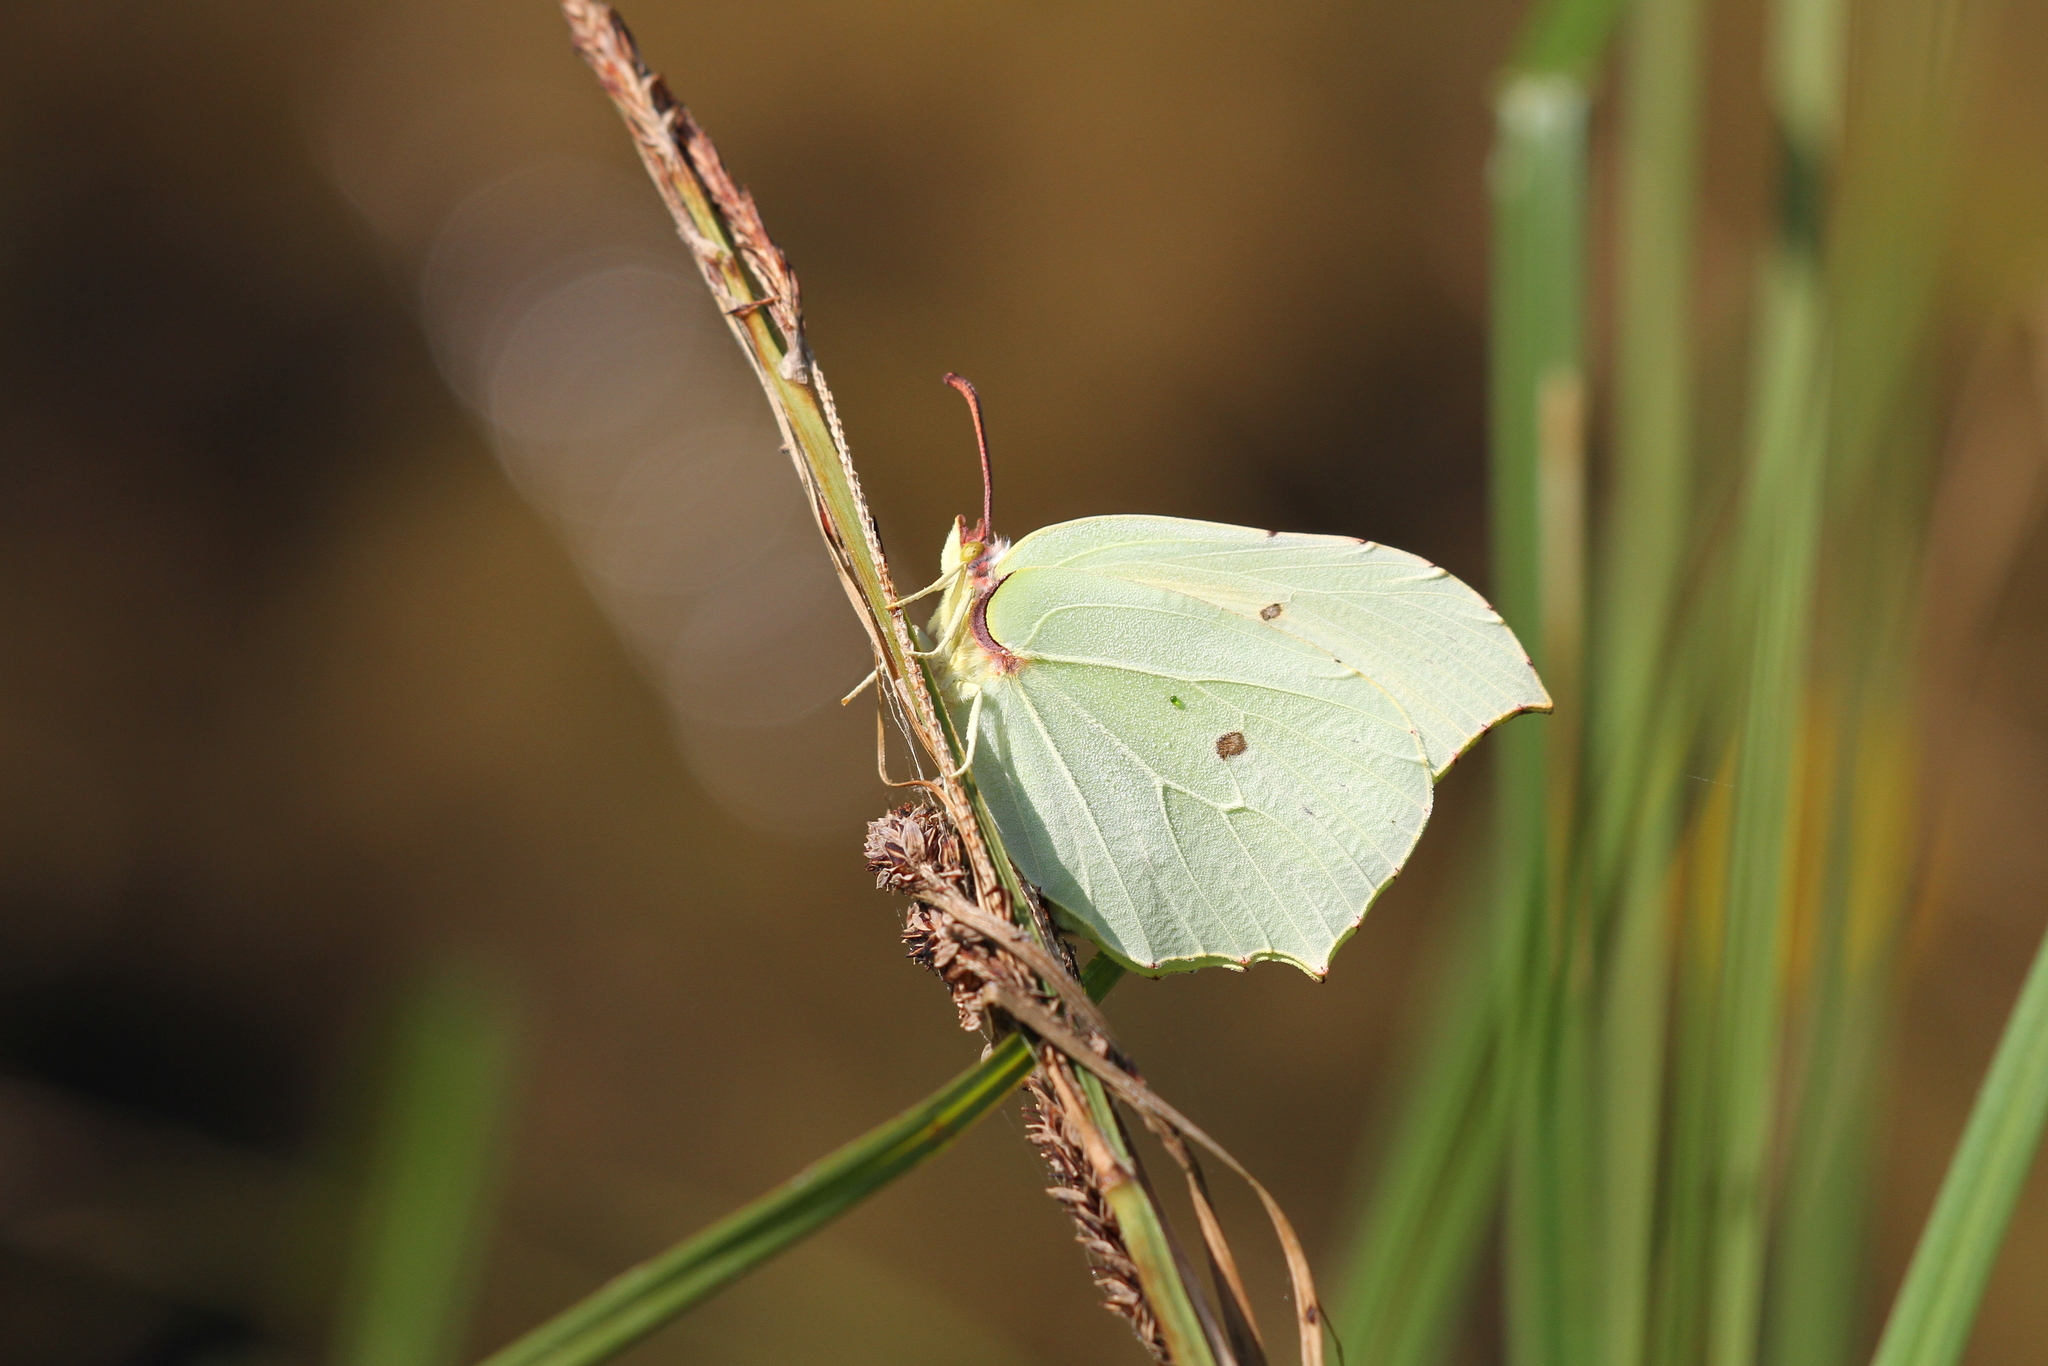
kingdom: Animalia
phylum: Arthropoda
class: Insecta
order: Lepidoptera
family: Pieridae
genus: Gonepteryx
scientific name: Gonepteryx rhamni
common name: Brimstone
